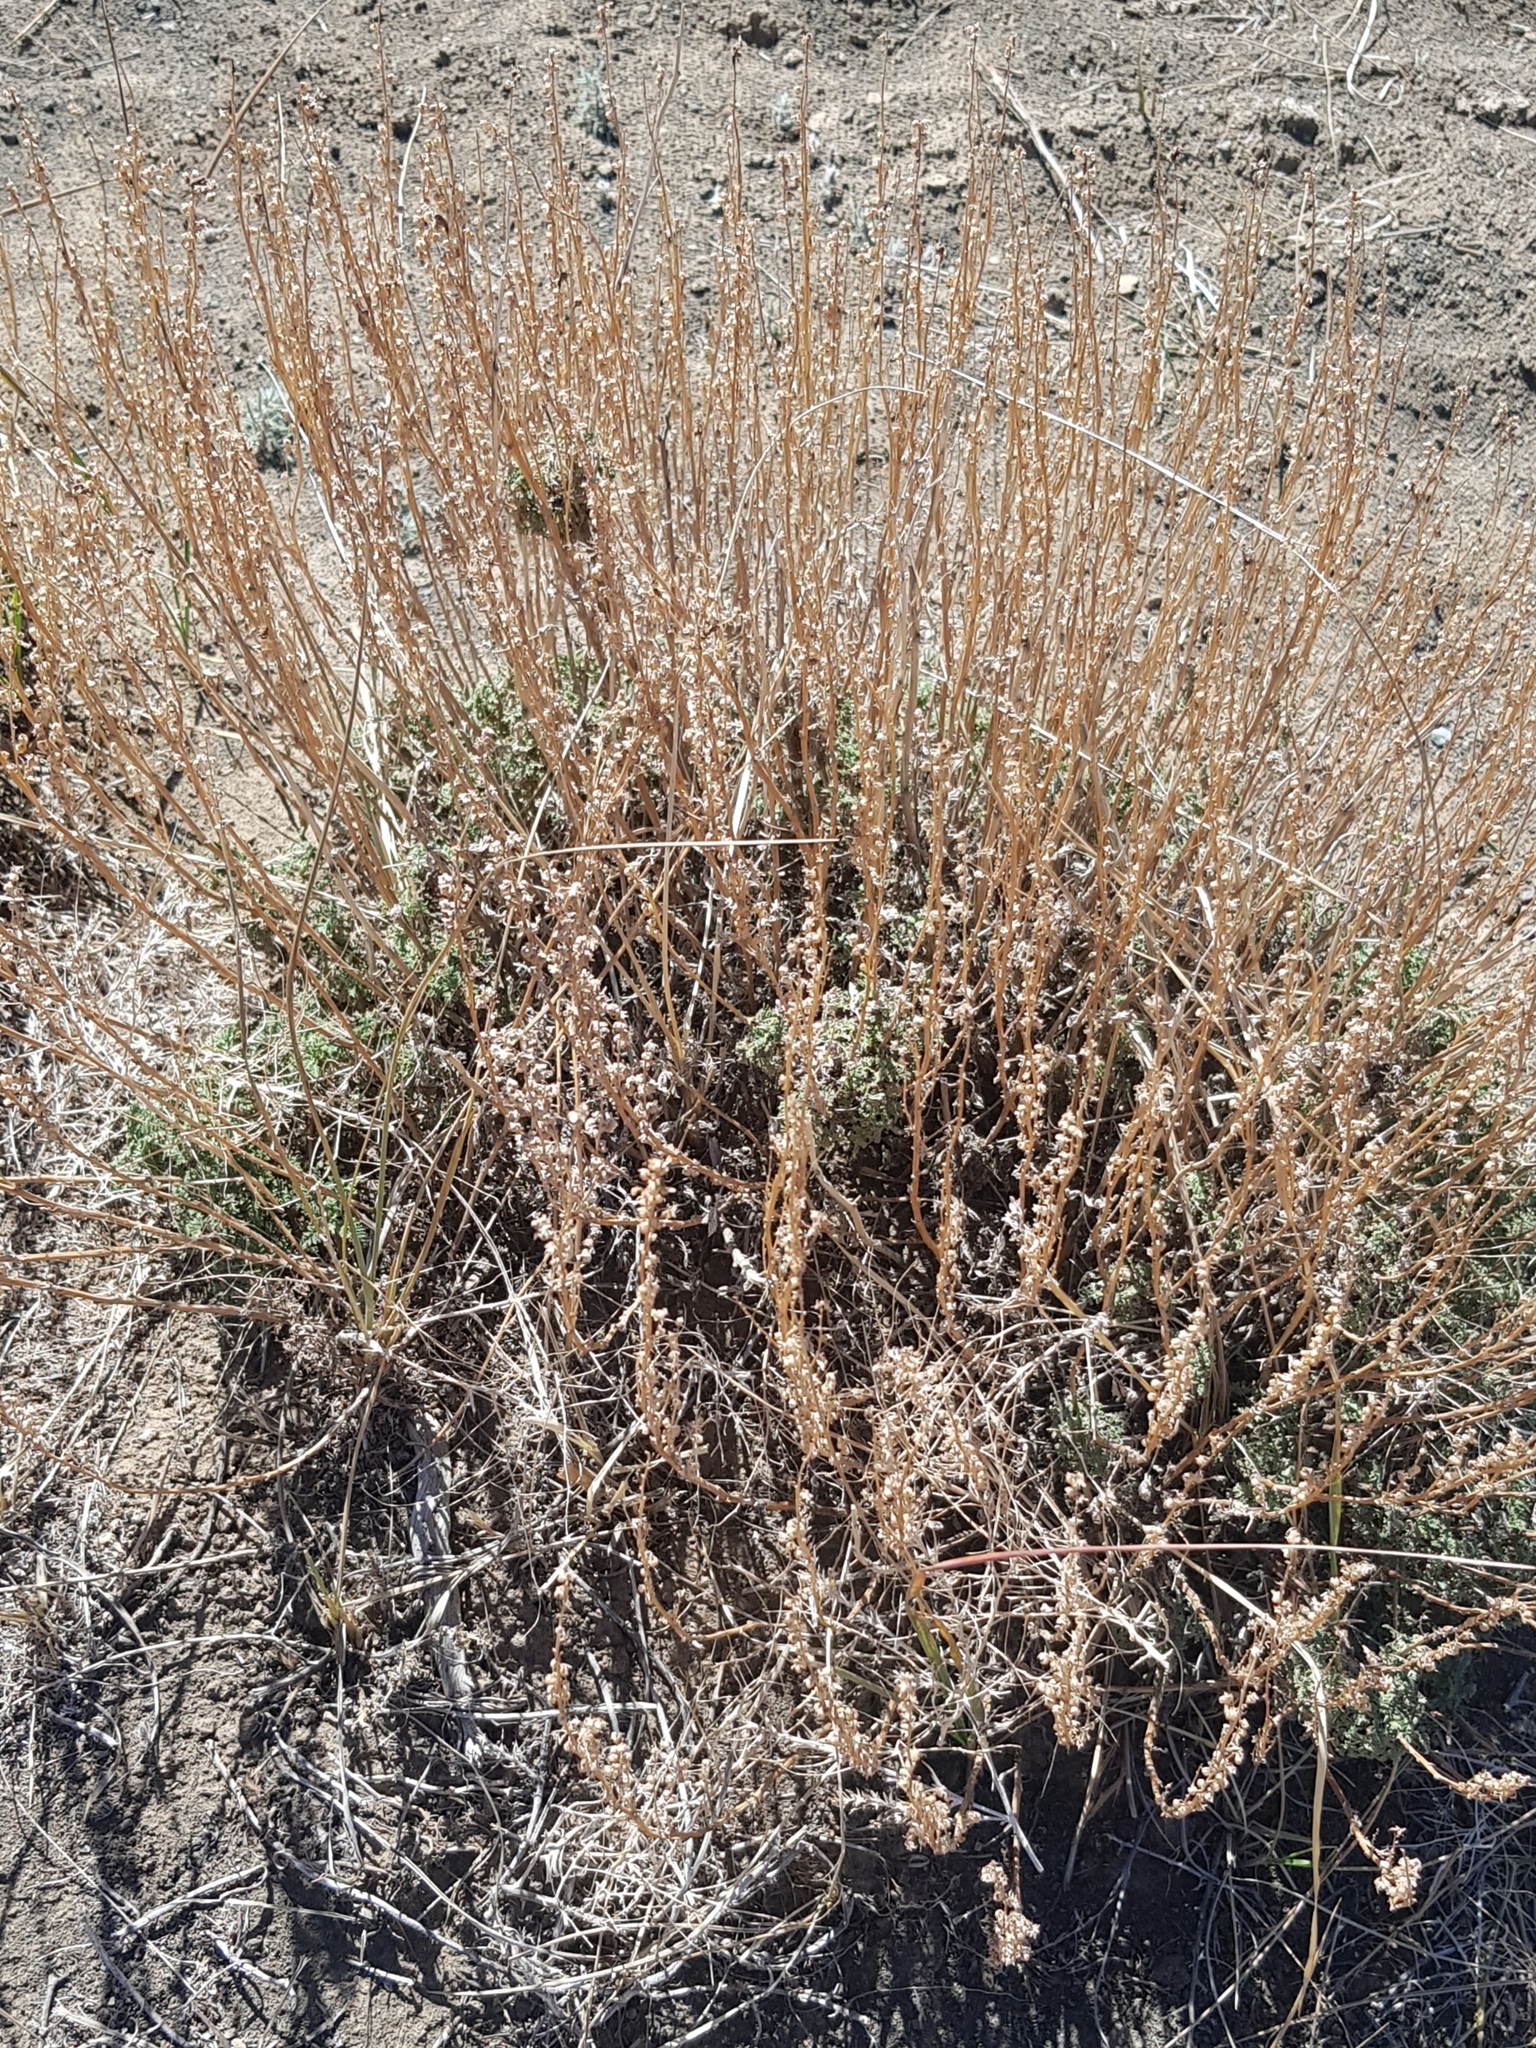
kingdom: Plantae
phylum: Tracheophyta
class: Magnoliopsida
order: Asterales
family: Asteraceae
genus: Artemisia
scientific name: Artemisia
